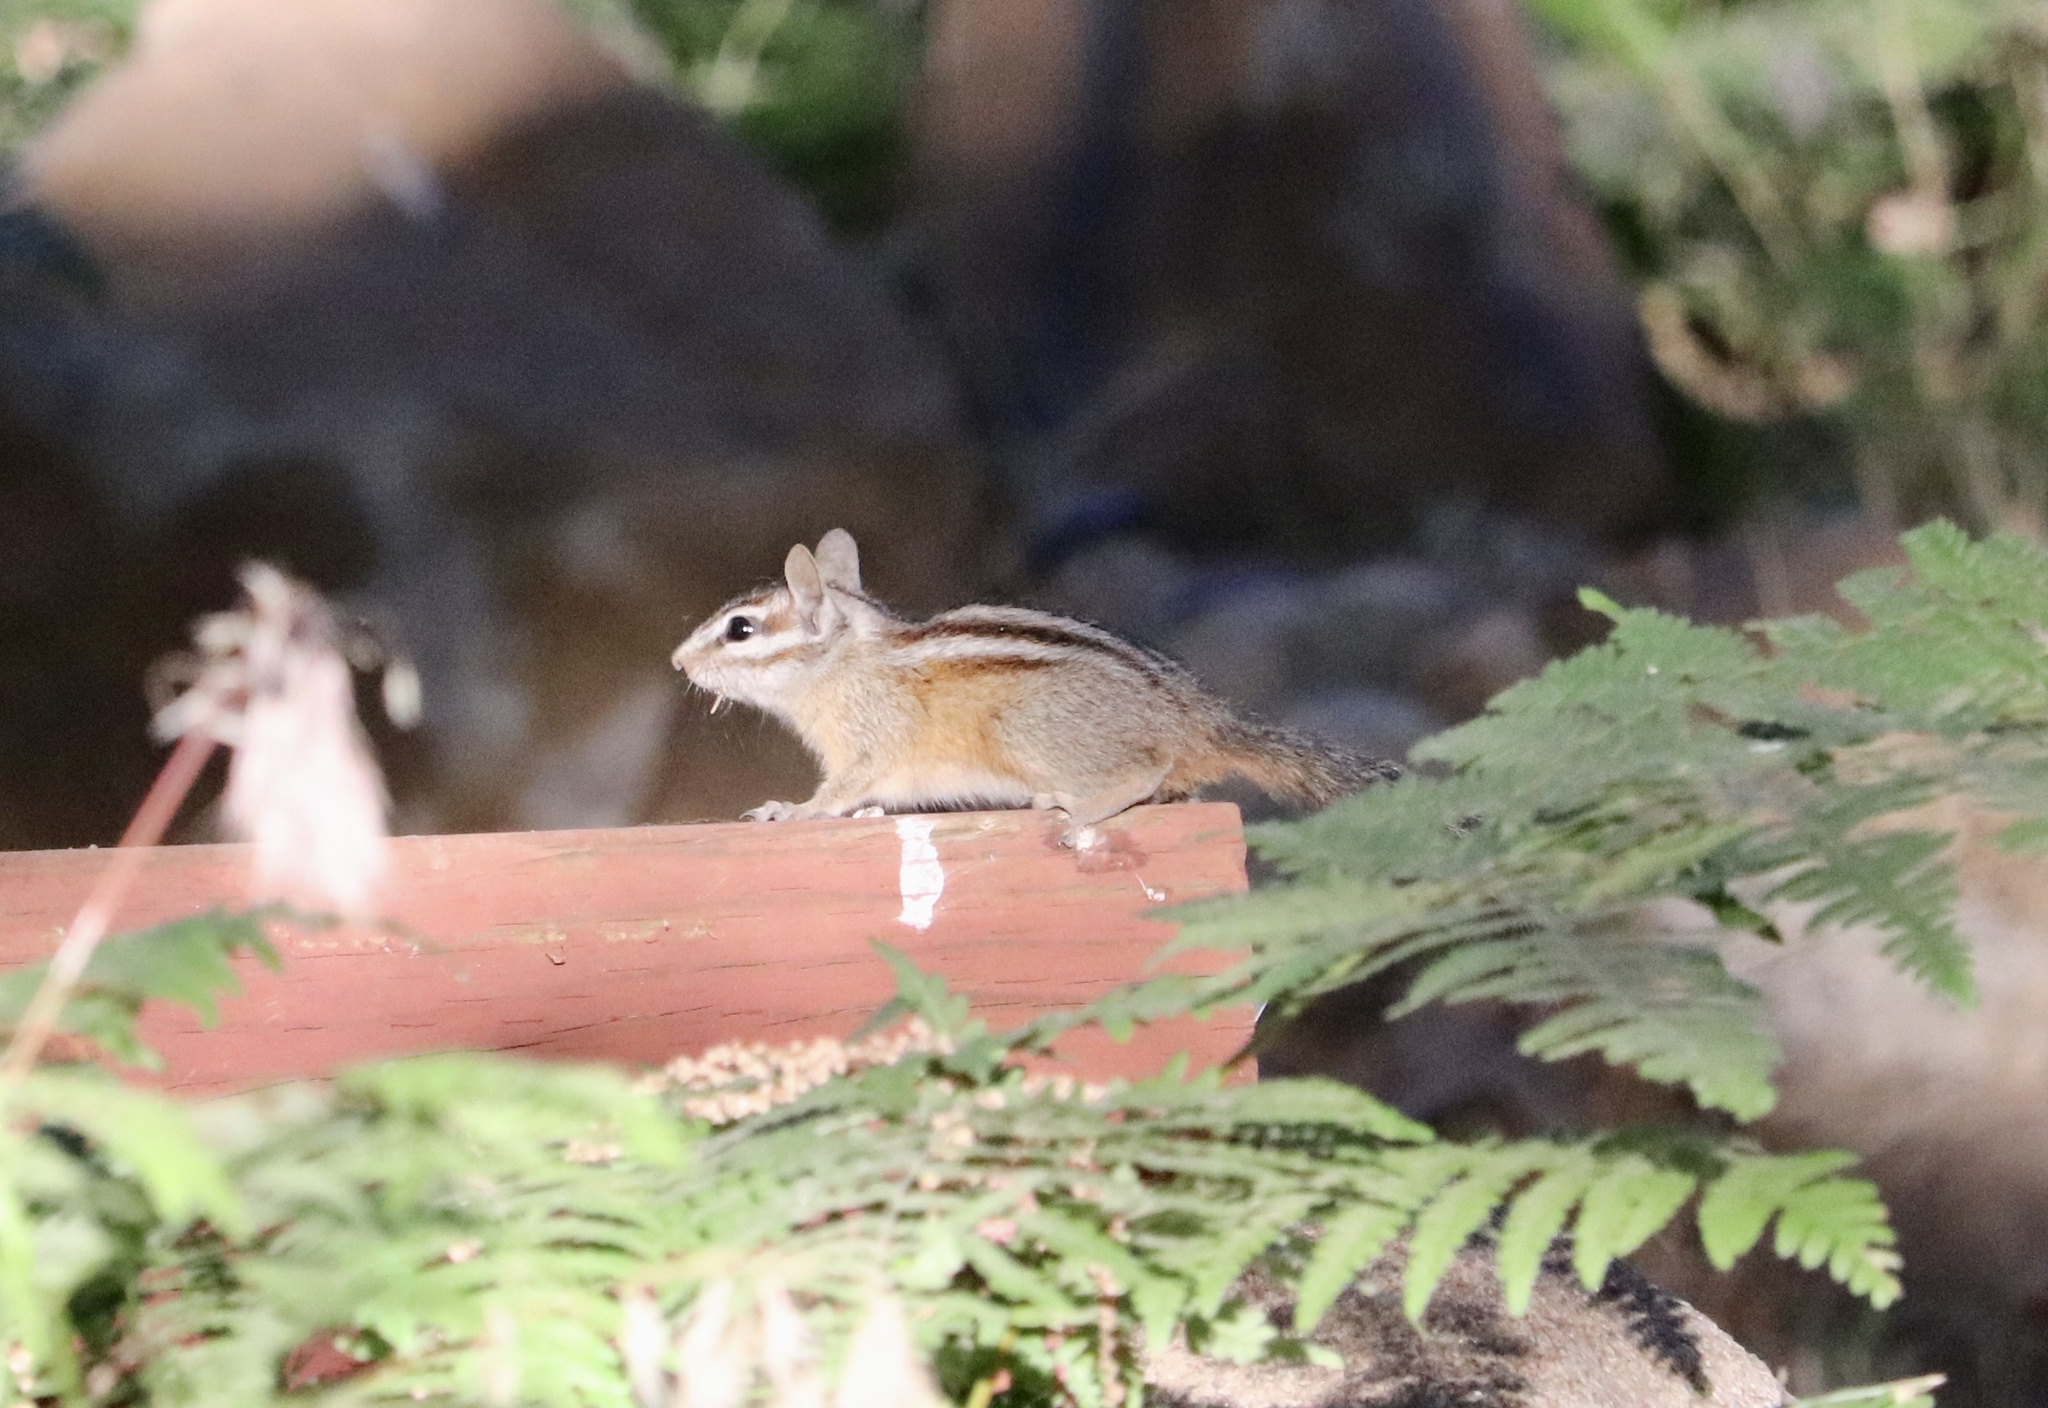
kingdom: Animalia
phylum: Chordata
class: Mammalia
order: Rodentia
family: Sciuridae
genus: Tamias
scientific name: Tamias merriami
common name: Merriam's chipmunk
